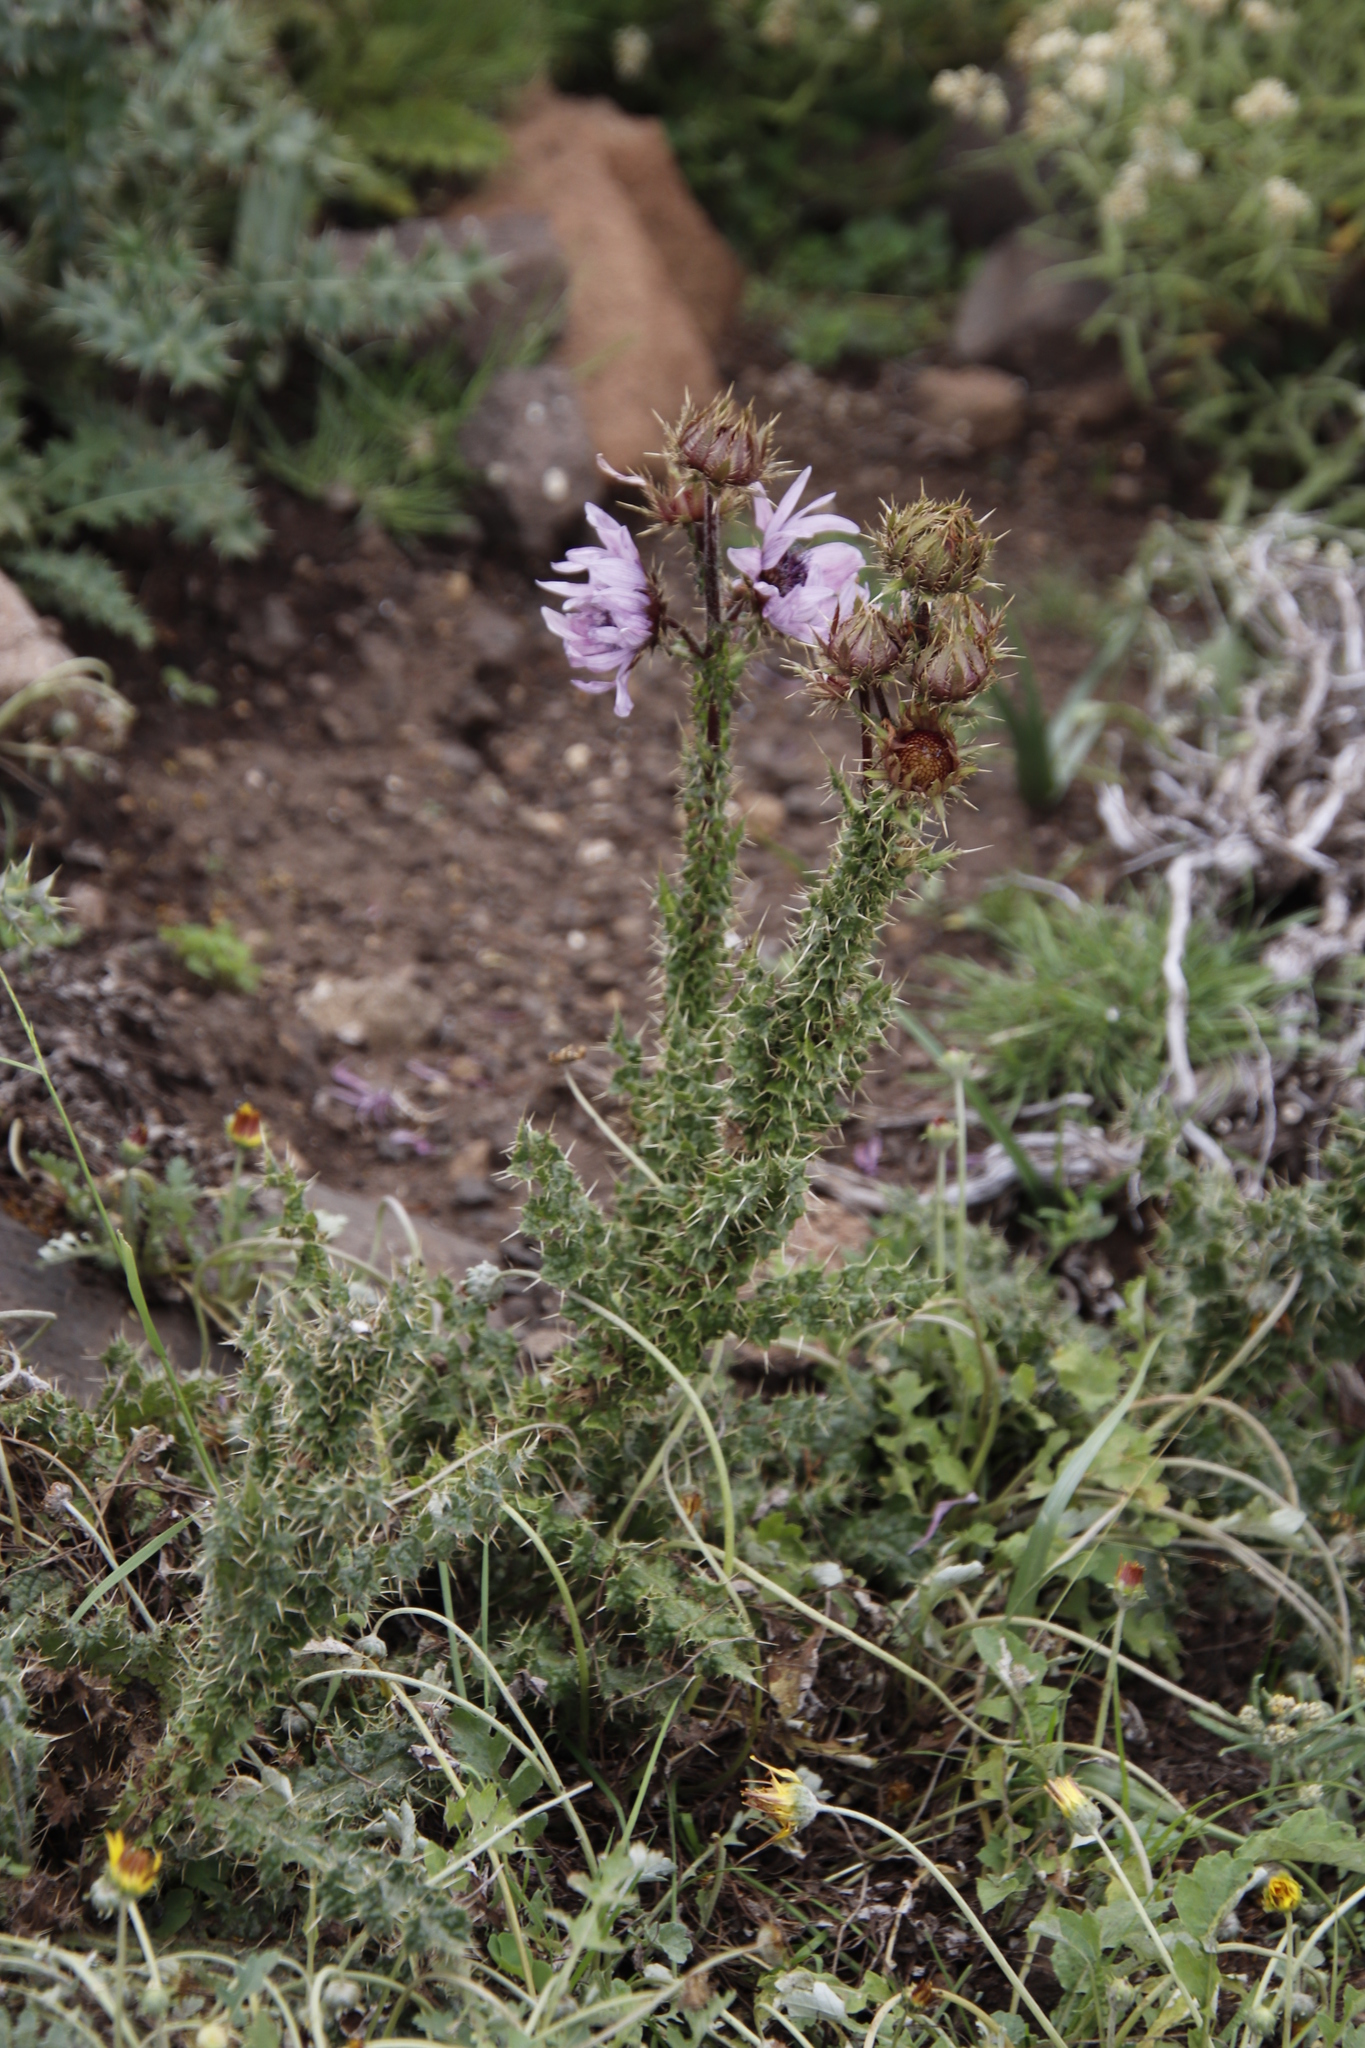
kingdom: Plantae
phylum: Tracheophyta
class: Magnoliopsida
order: Asterales
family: Asteraceae
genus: Berkheya
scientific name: Berkheya purpurea
